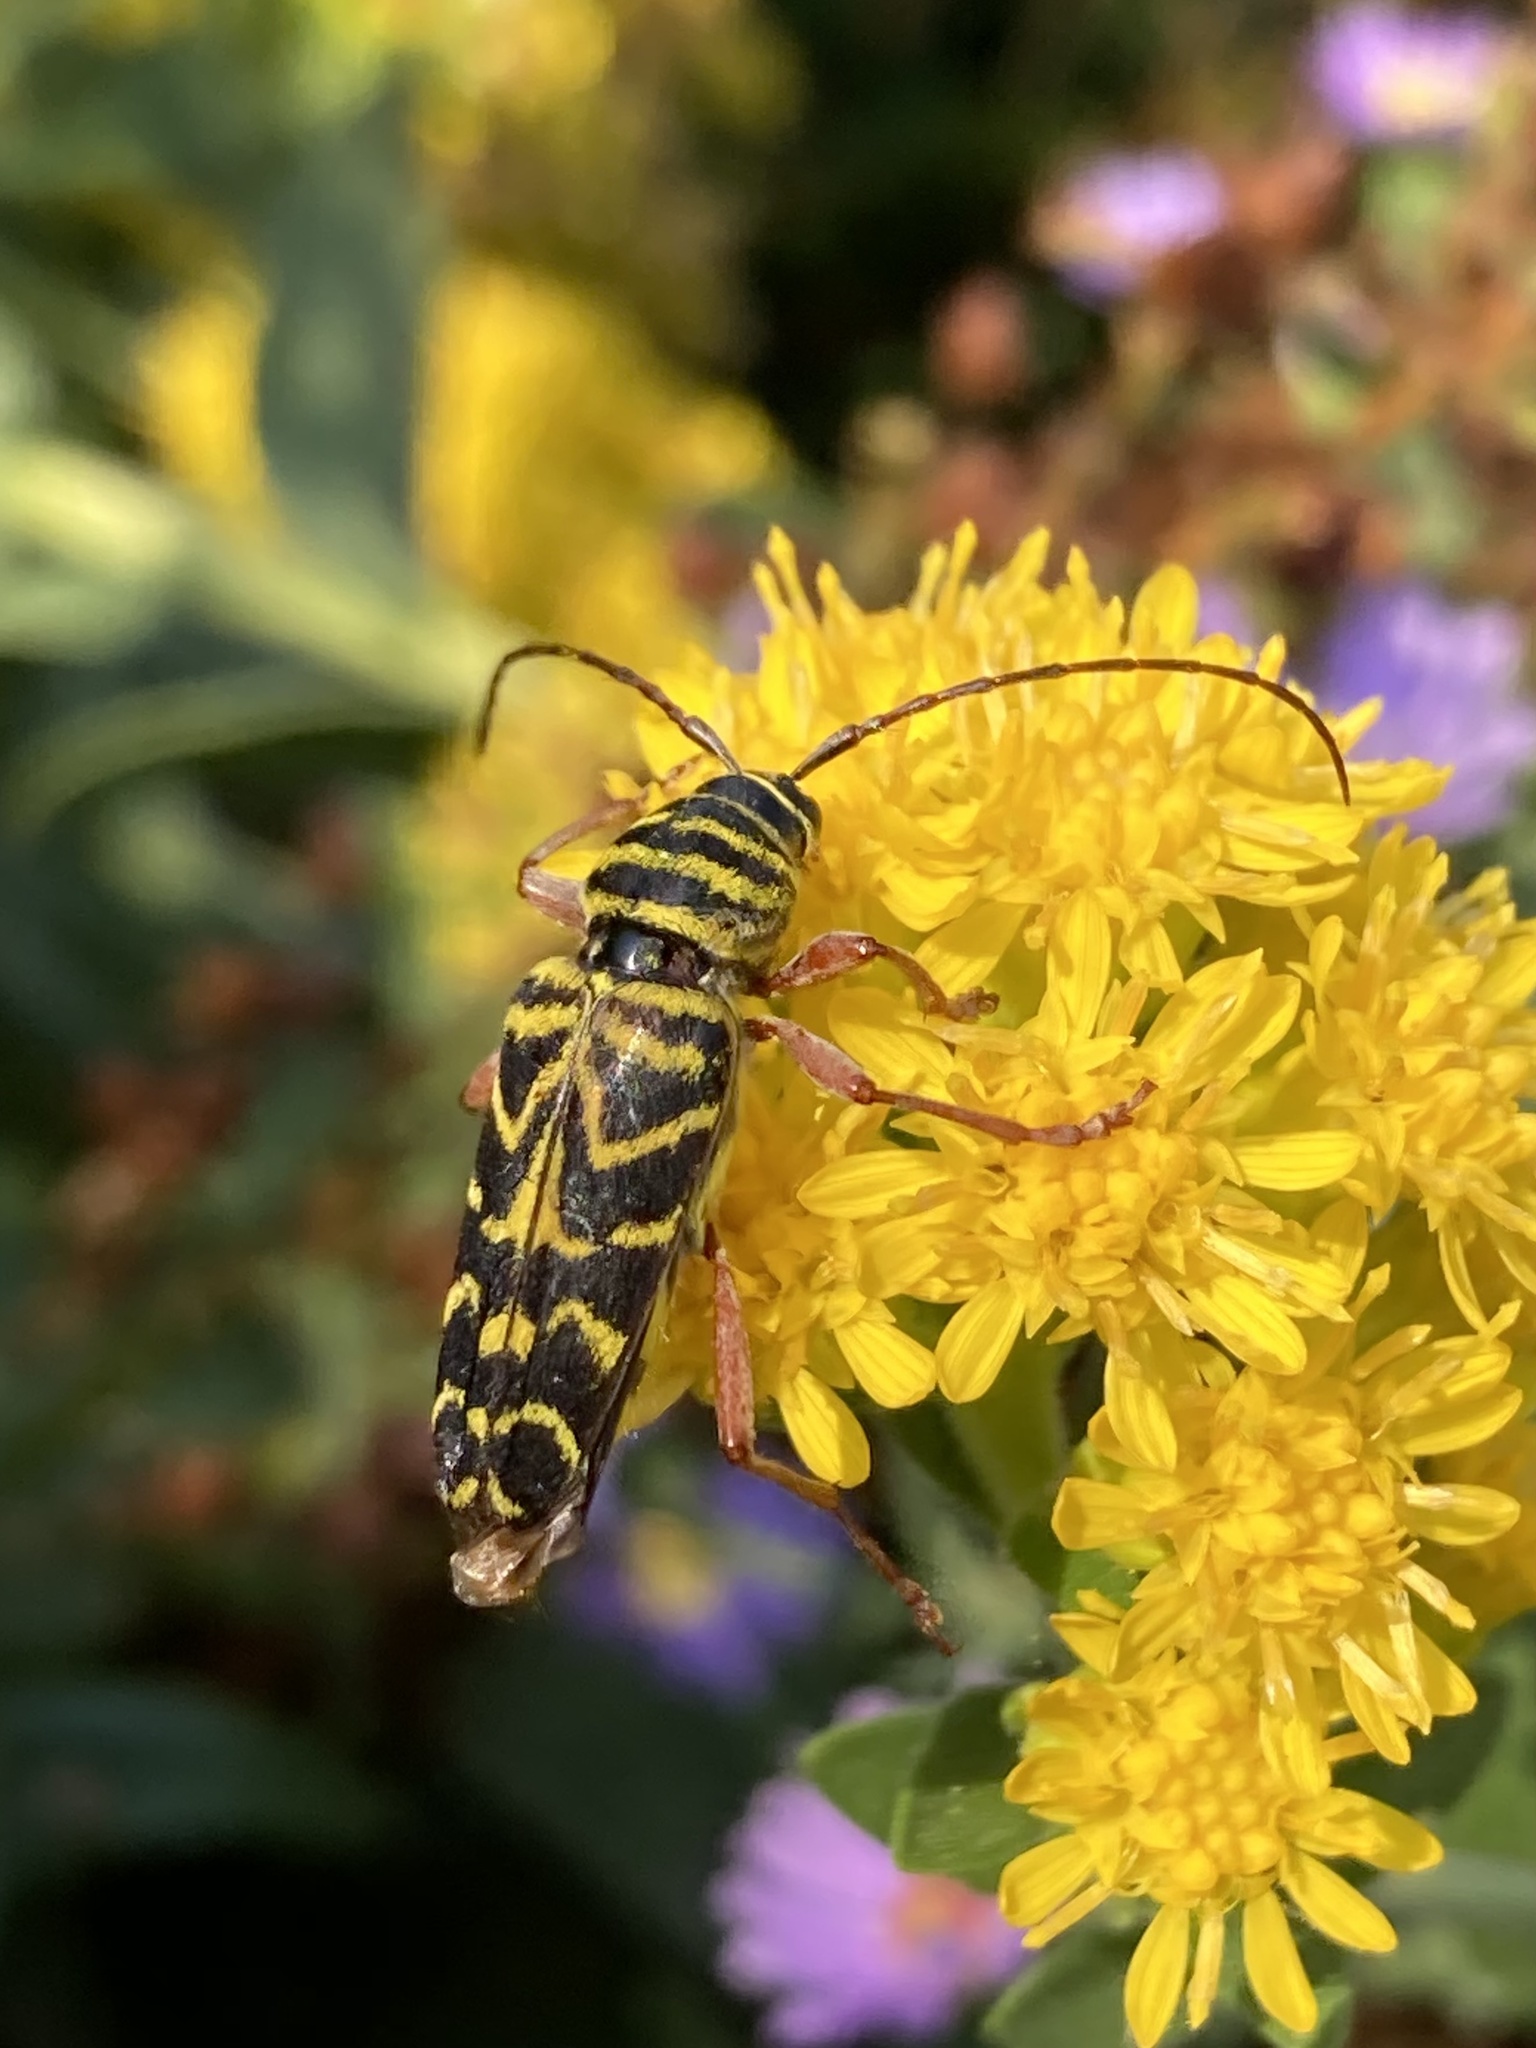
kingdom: Animalia
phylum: Arthropoda
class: Insecta
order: Coleoptera
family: Cerambycidae
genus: Megacyllene
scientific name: Megacyllene robiniae
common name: Locust borer
